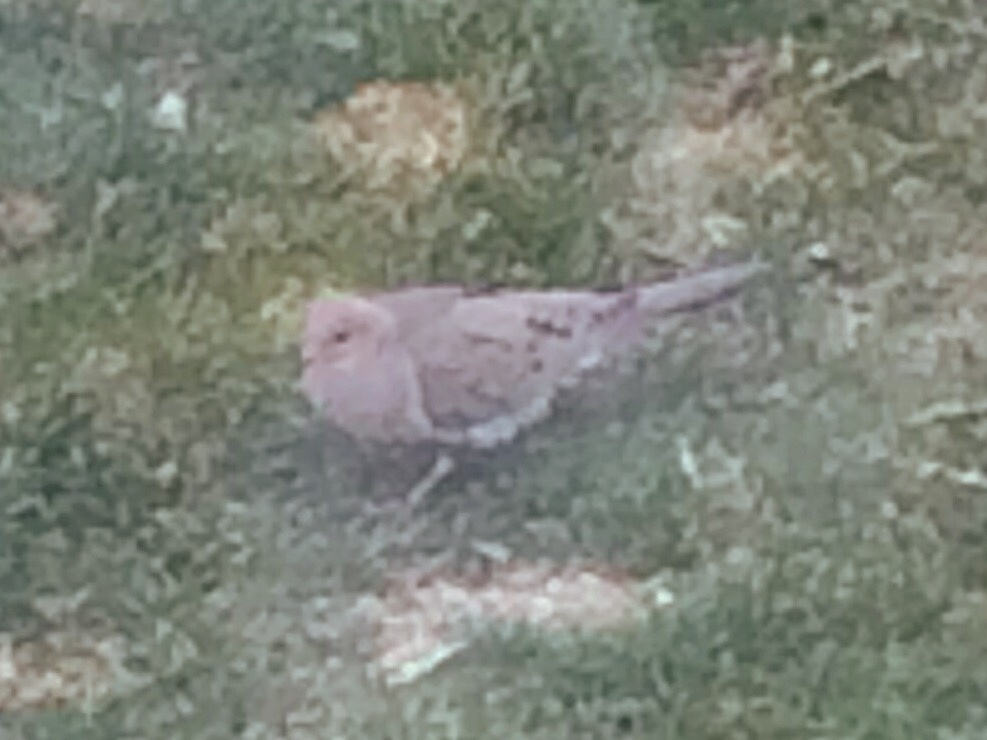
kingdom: Animalia
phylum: Chordata
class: Aves
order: Columbiformes
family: Columbidae
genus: Zenaida
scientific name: Zenaida macroura
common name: Mourning dove
